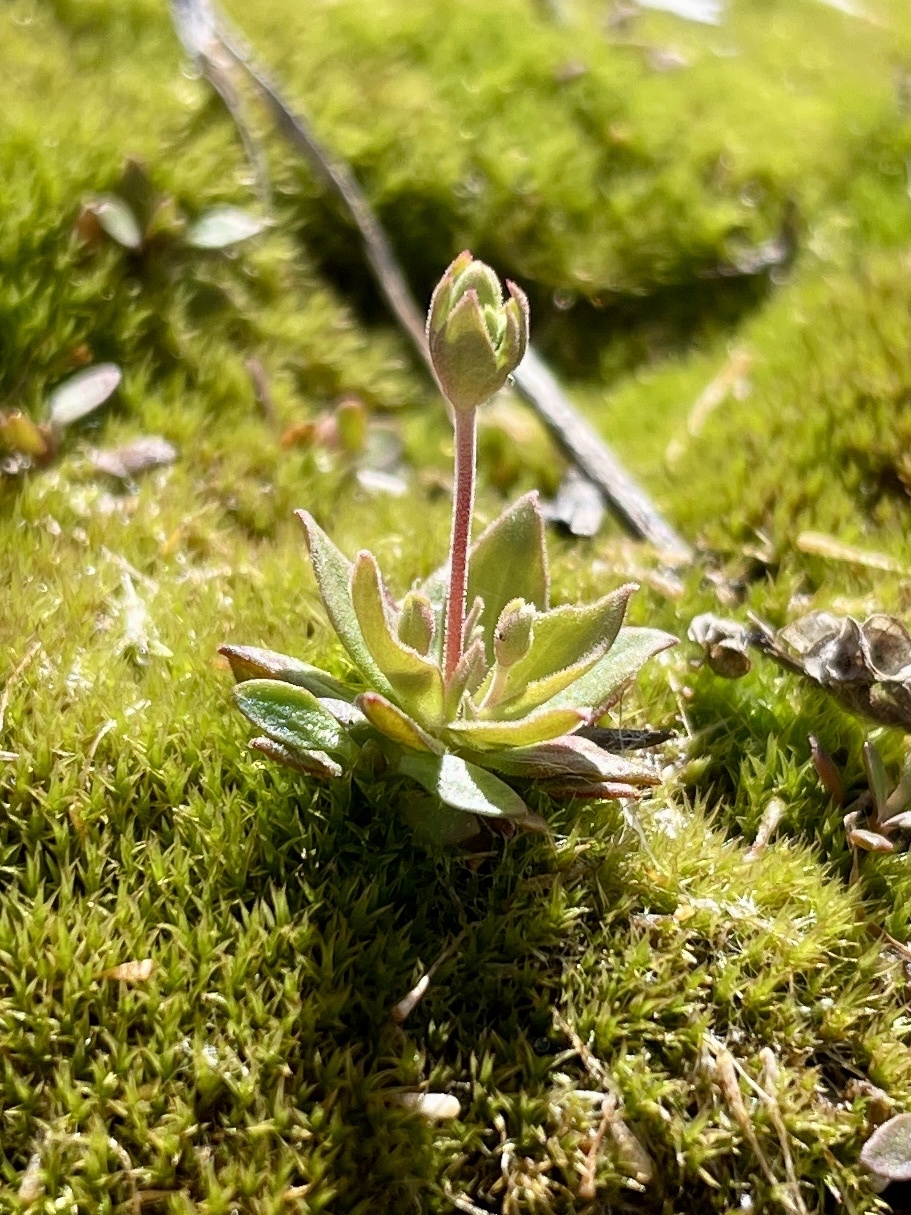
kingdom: Plantae
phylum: Tracheophyta
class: Magnoliopsida
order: Ericales
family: Primulaceae
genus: Androsace
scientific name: Androsace occidentalis
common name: West rock-jasmine
